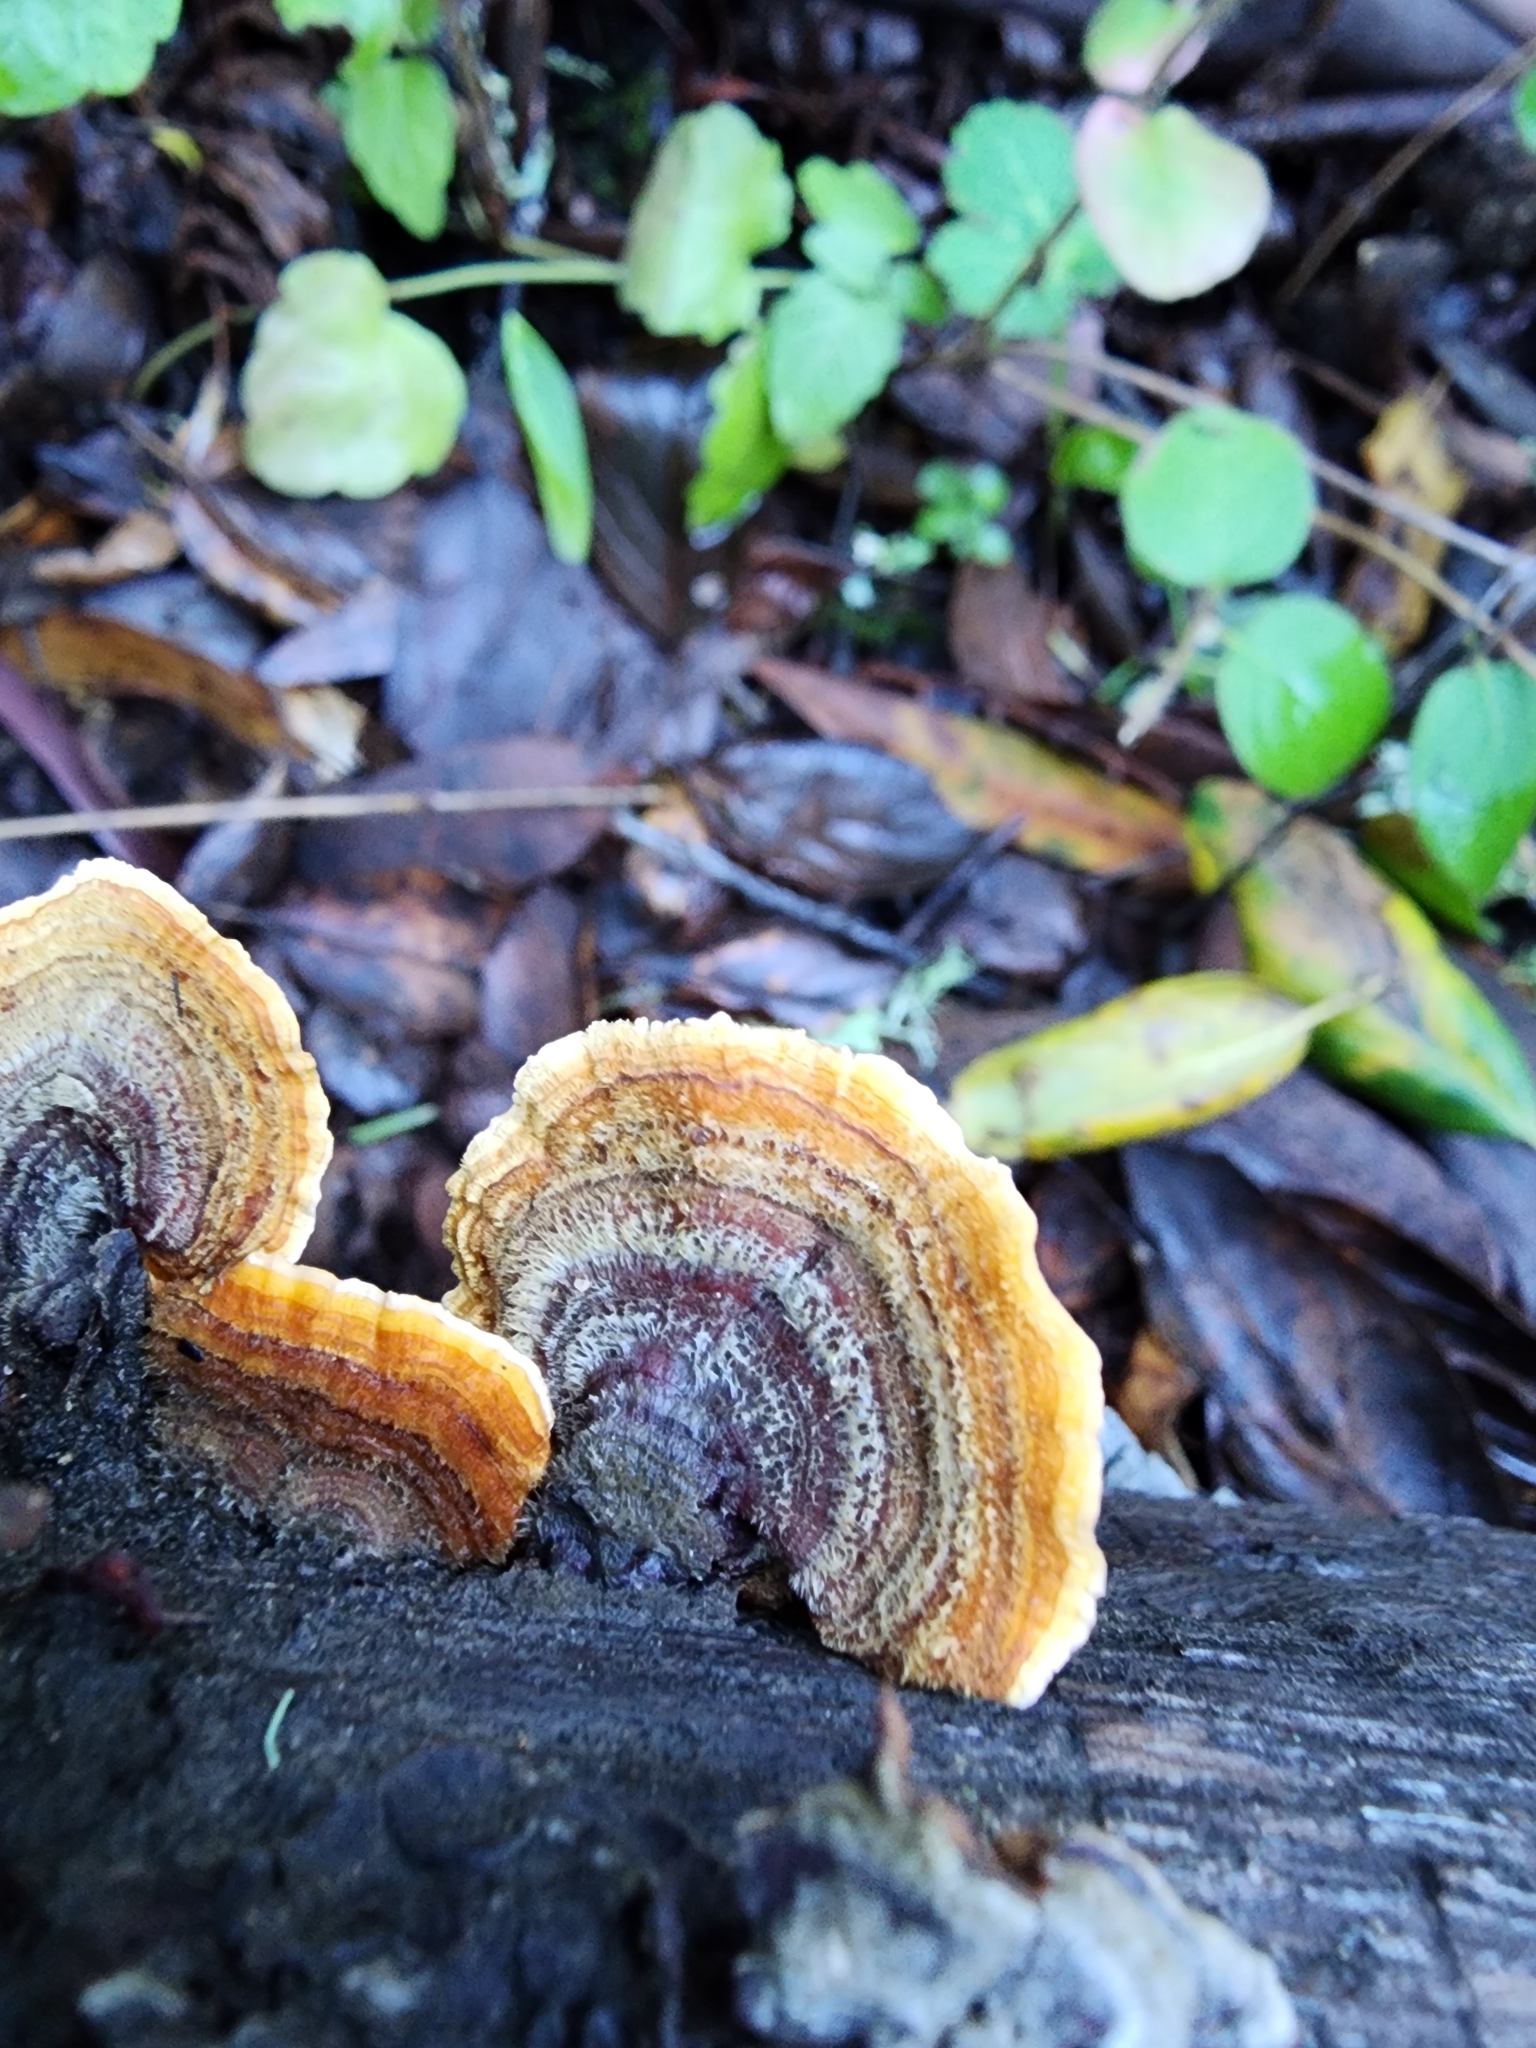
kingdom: Fungi
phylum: Basidiomycota
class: Agaricomycetes
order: Russulales
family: Stereaceae
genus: Stereum
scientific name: Stereum hirsutum
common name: Hairy curtain crust
